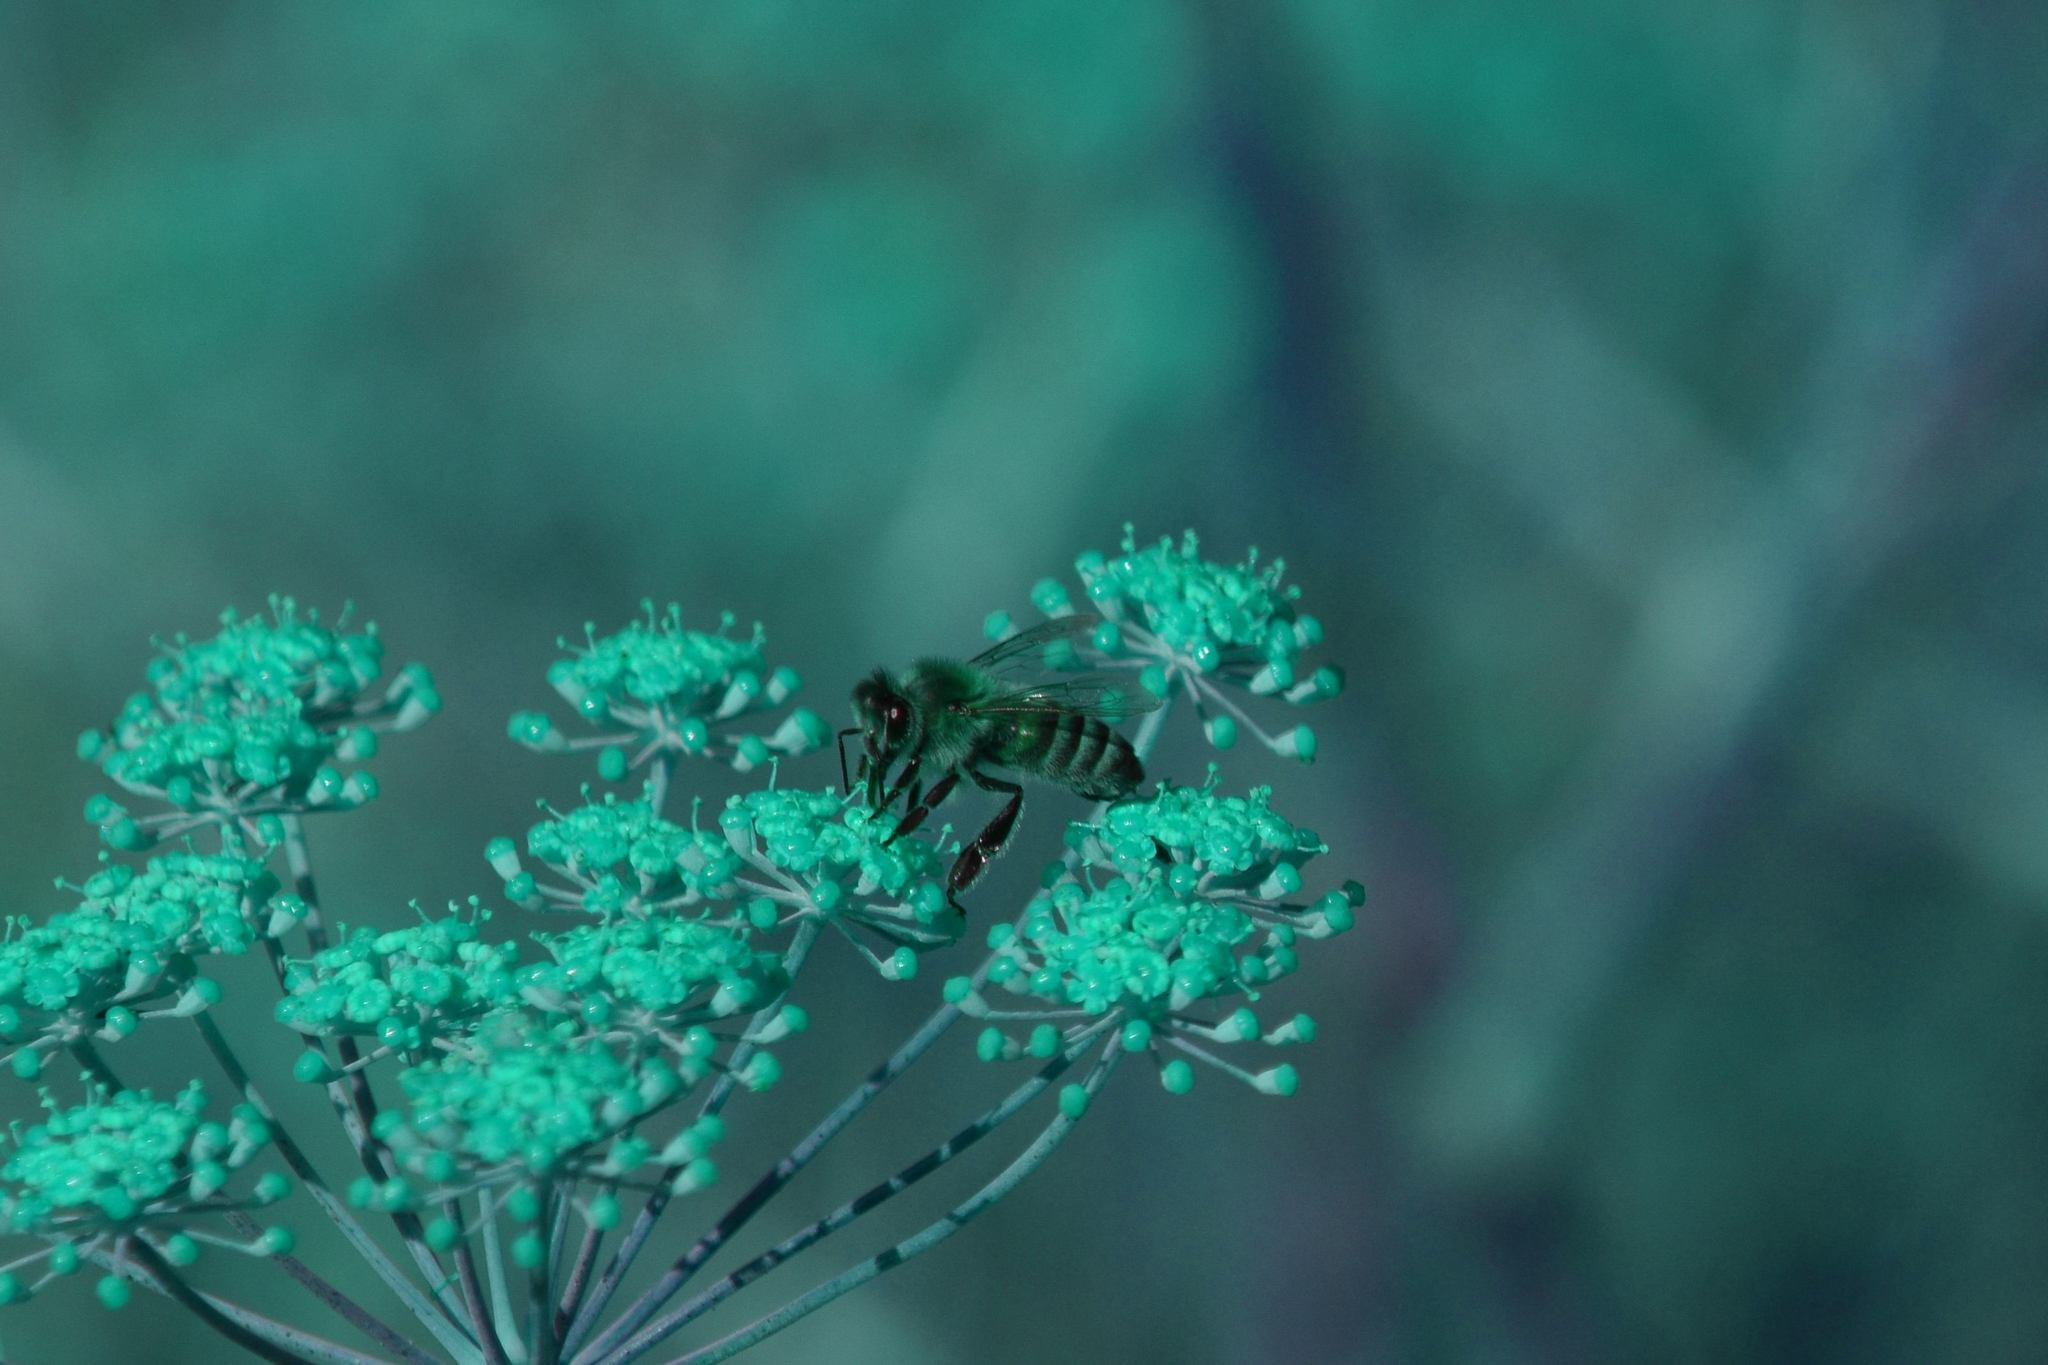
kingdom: Animalia
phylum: Arthropoda
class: Insecta
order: Hymenoptera
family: Apidae
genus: Apis
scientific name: Apis mellifera
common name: Honey bee
